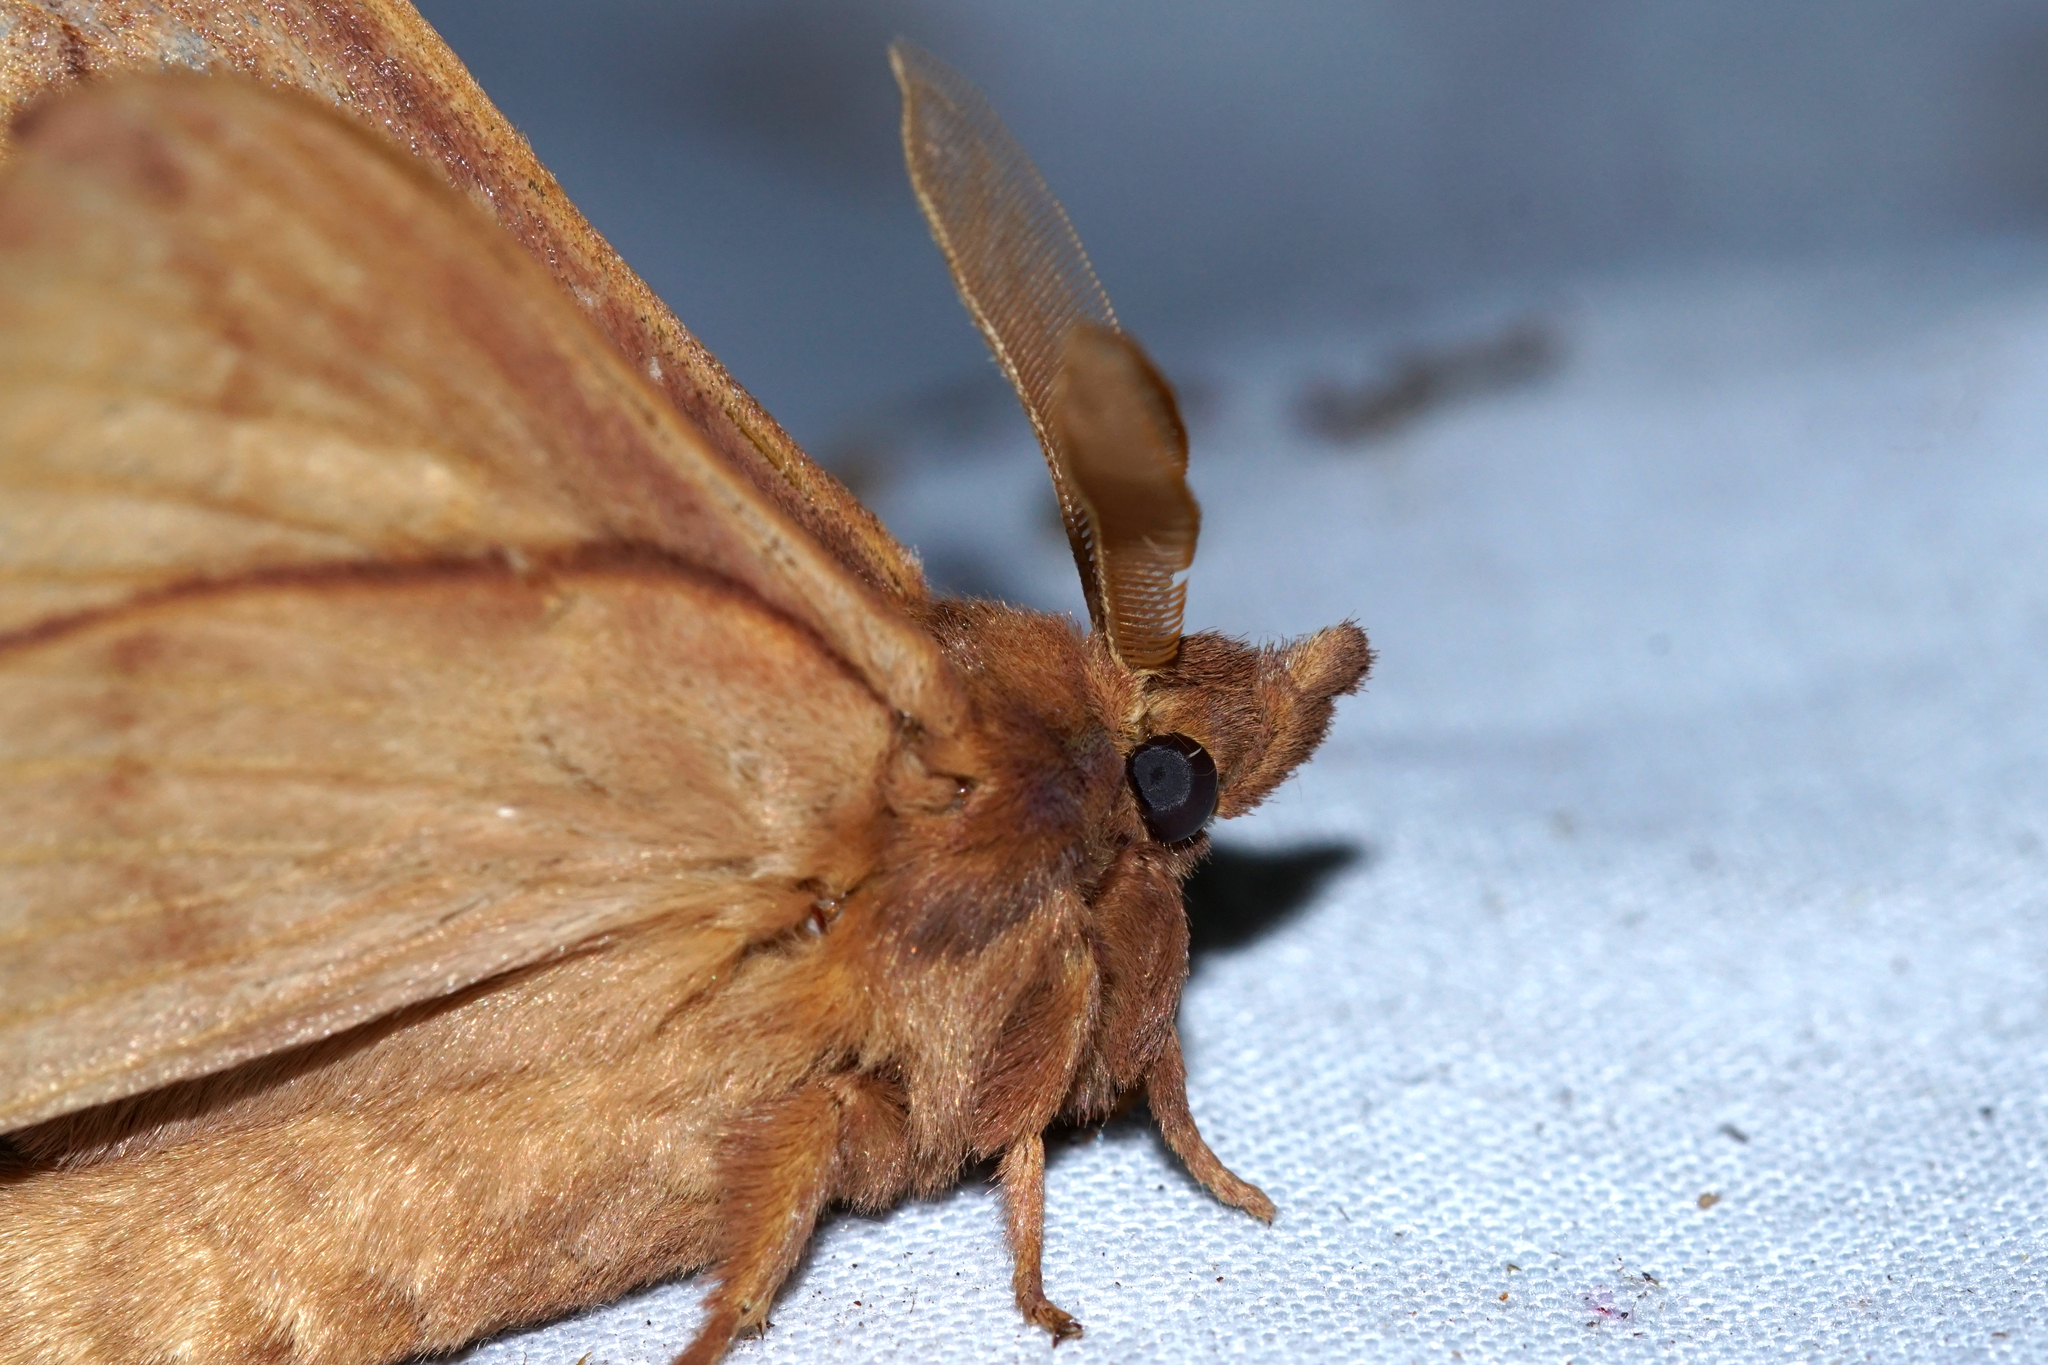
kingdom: Animalia
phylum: Arthropoda
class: Insecta
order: Lepidoptera
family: Lasiocampidae
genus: Euthrix
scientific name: Euthrix potatoria
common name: Drinker
